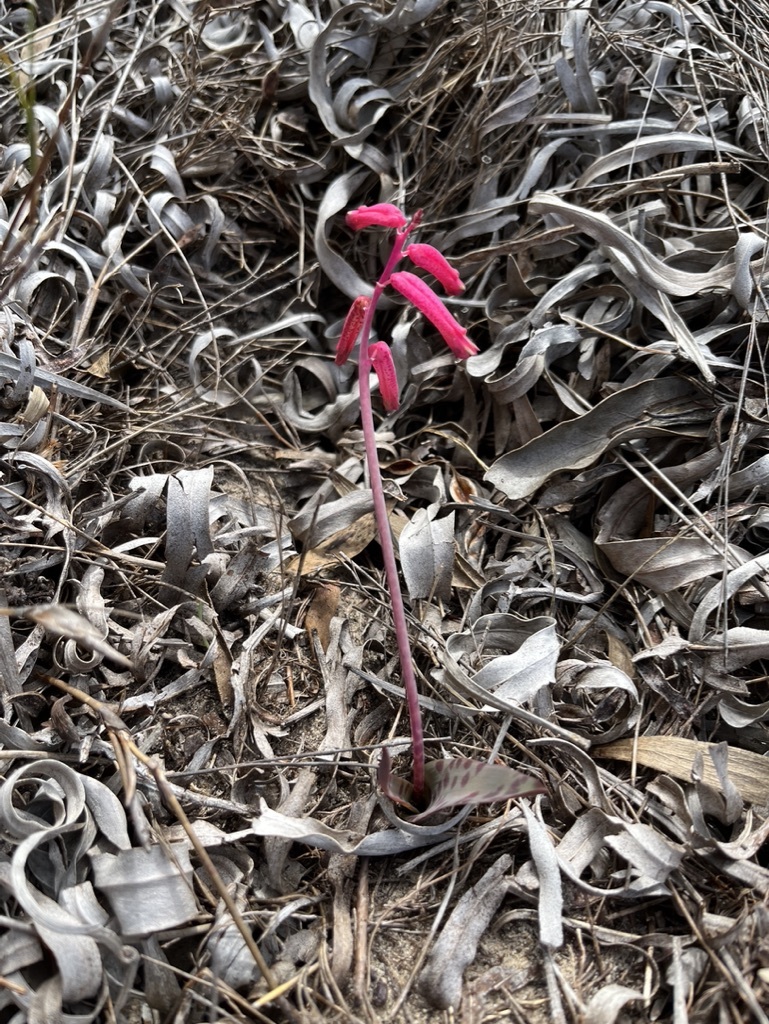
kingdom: Plantae
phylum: Tracheophyta
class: Liliopsida
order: Asparagales
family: Asparagaceae
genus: Lachenalia
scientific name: Lachenalia punctata
